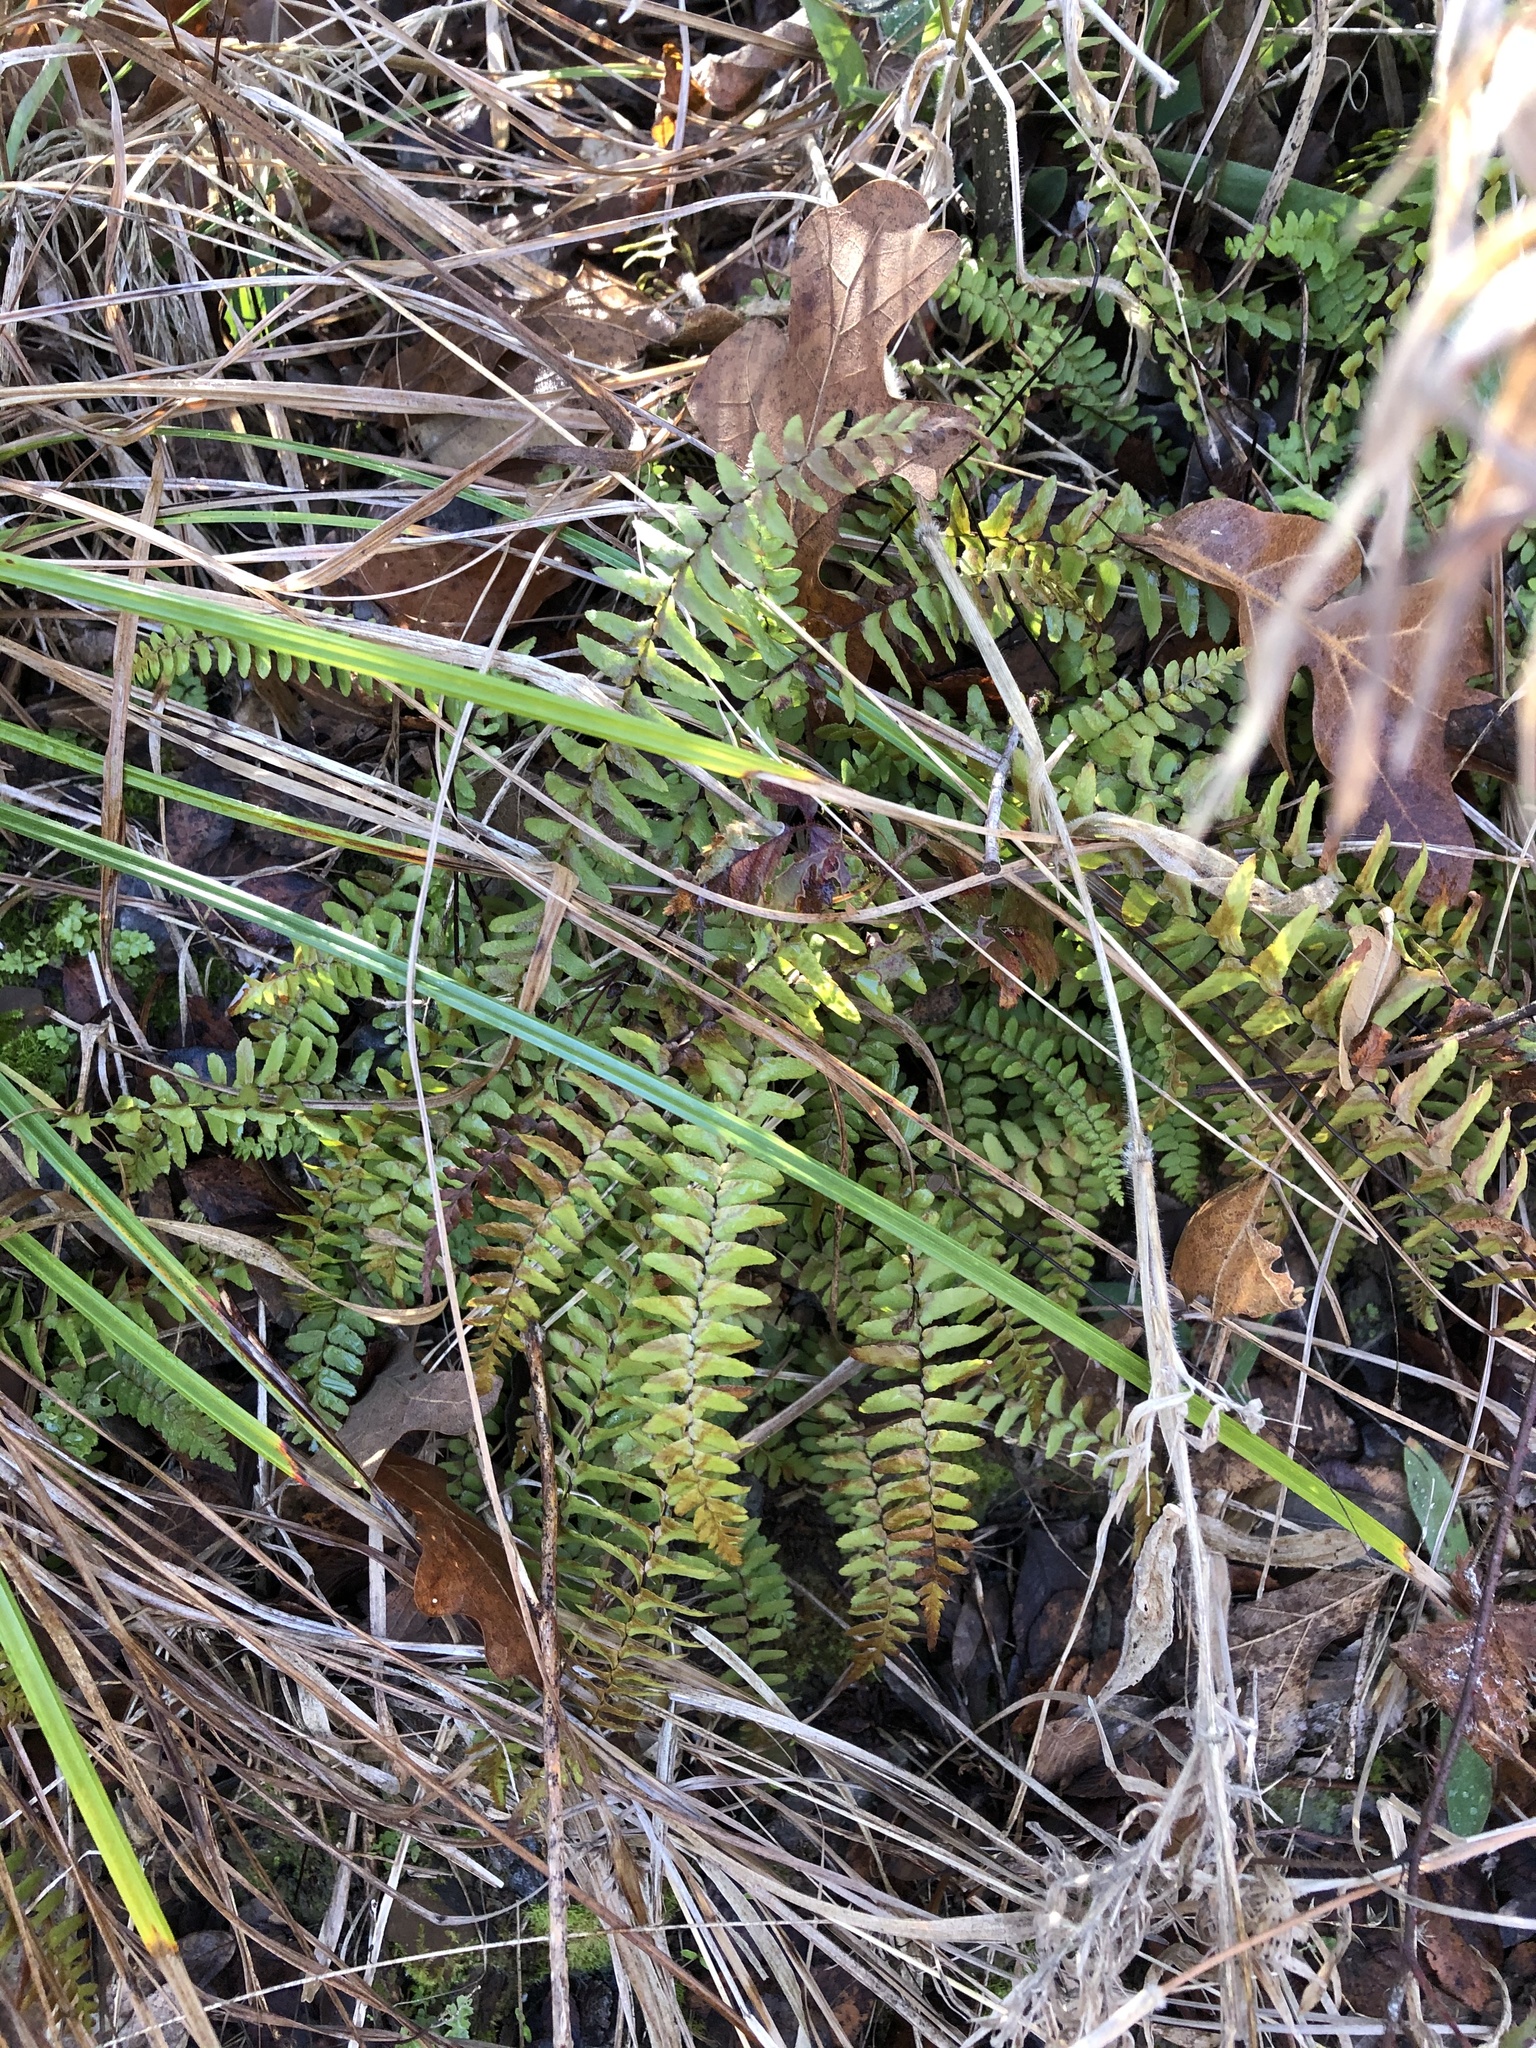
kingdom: Plantae
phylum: Tracheophyta
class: Polypodiopsida
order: Polypodiales
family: Aspleniaceae
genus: Asplenium
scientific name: Asplenium platyneuron
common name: Ebony spleenwort
